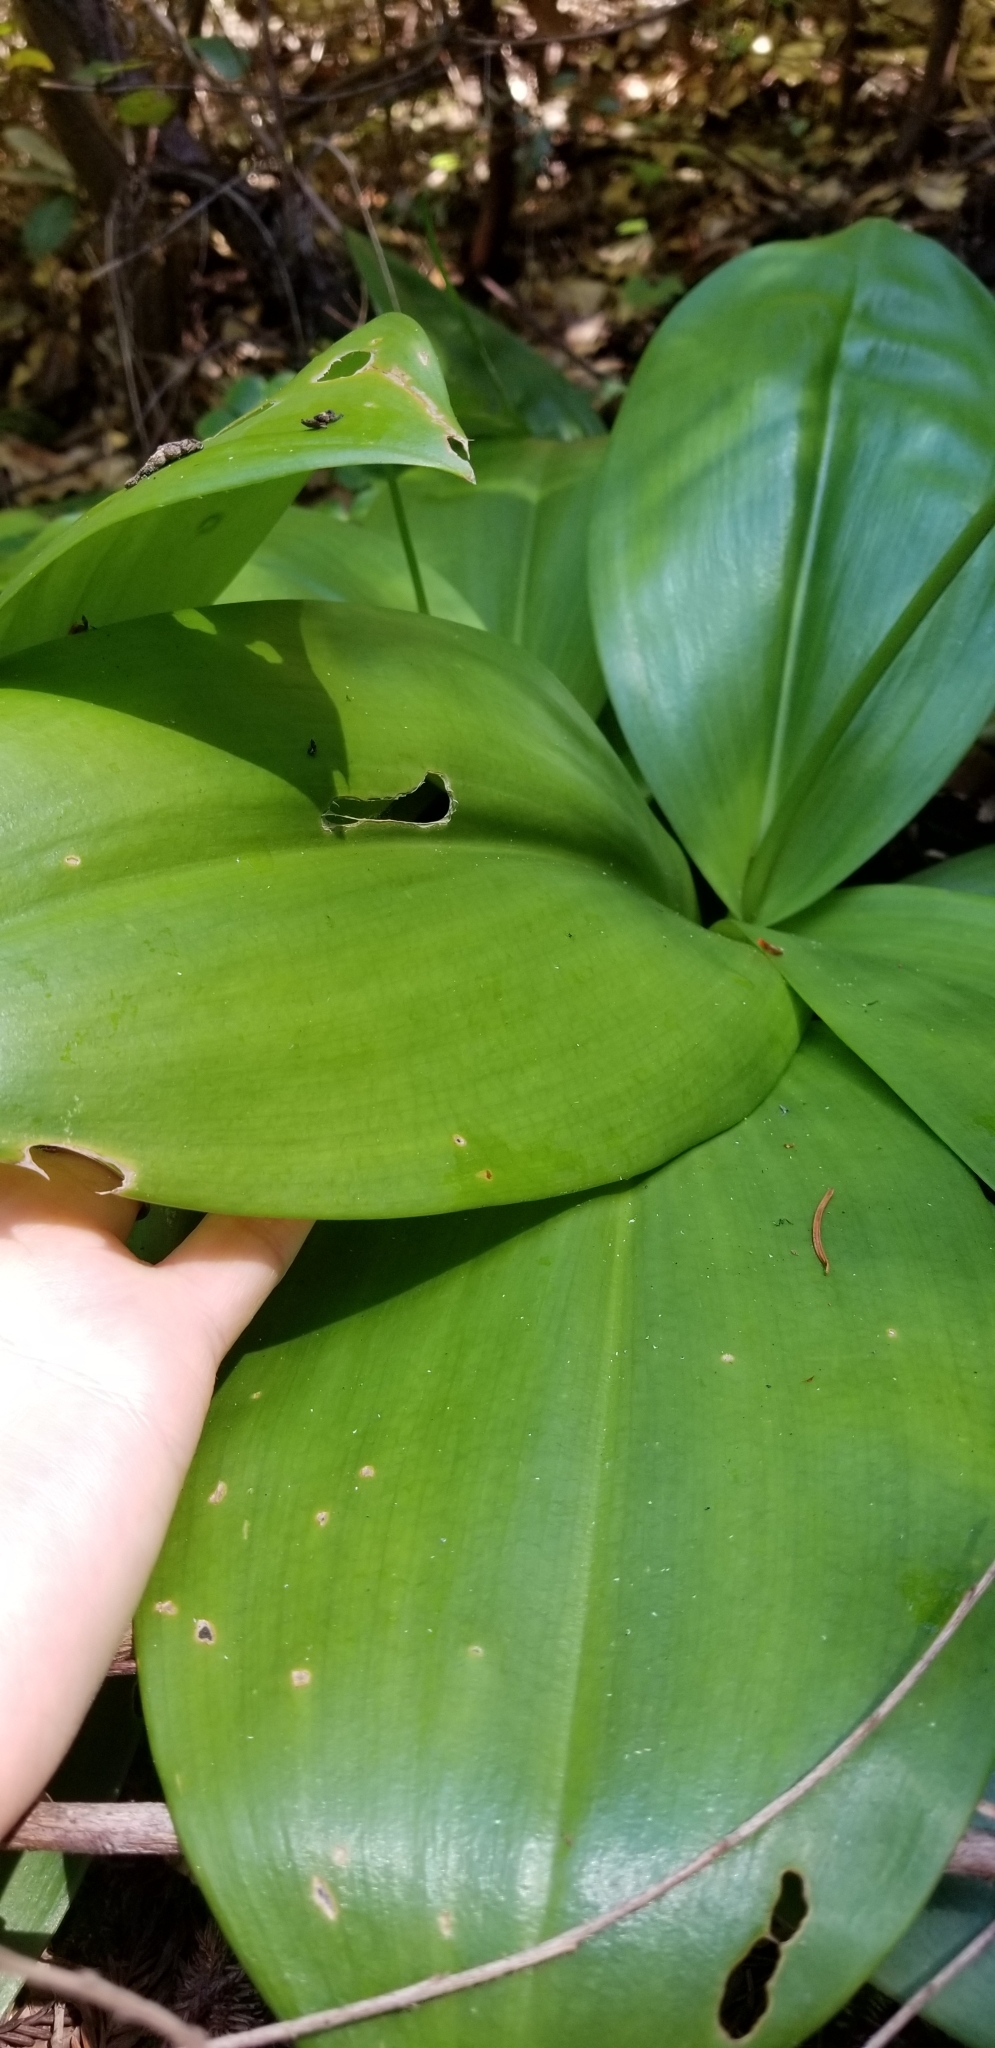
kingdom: Plantae
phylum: Tracheophyta
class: Liliopsida
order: Liliales
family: Liliaceae
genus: Clintonia
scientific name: Clintonia andrewsiana
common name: Red clintonia
